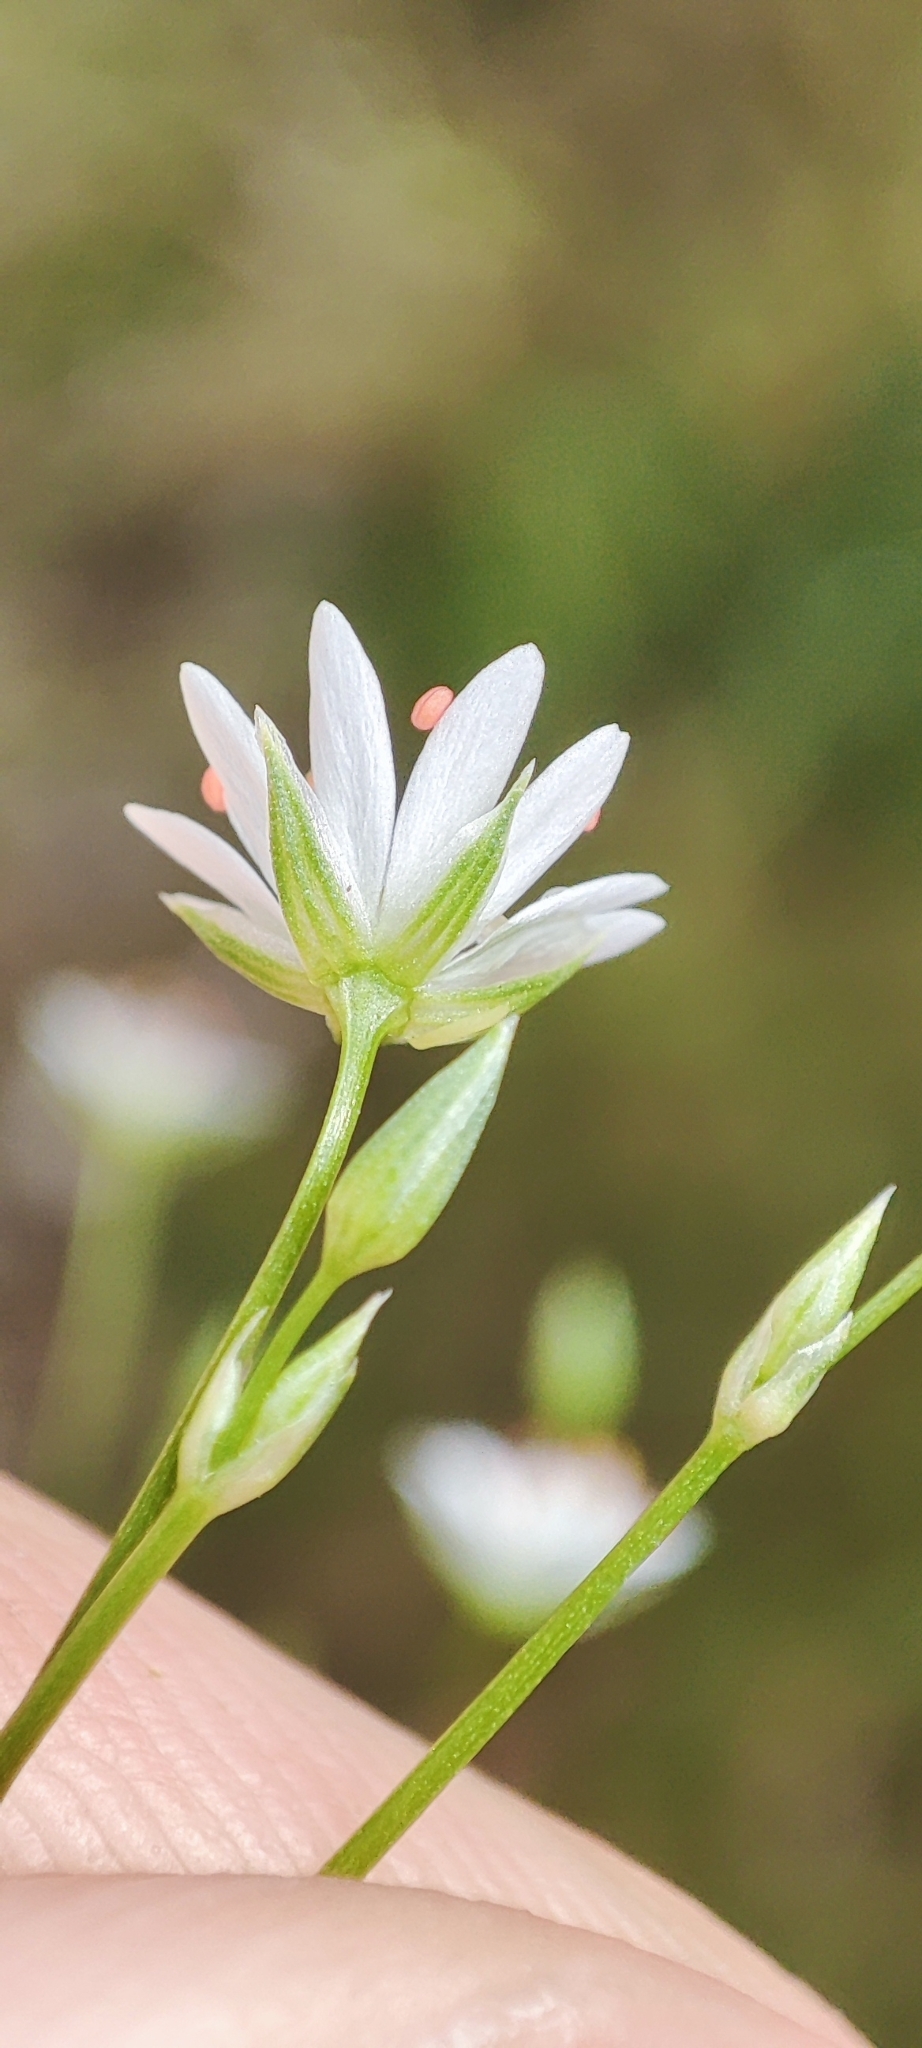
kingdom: Plantae
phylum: Tracheophyta
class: Magnoliopsida
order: Caryophyllales
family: Caryophyllaceae
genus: Stellaria
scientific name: Stellaria graminea
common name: Grass-like starwort
